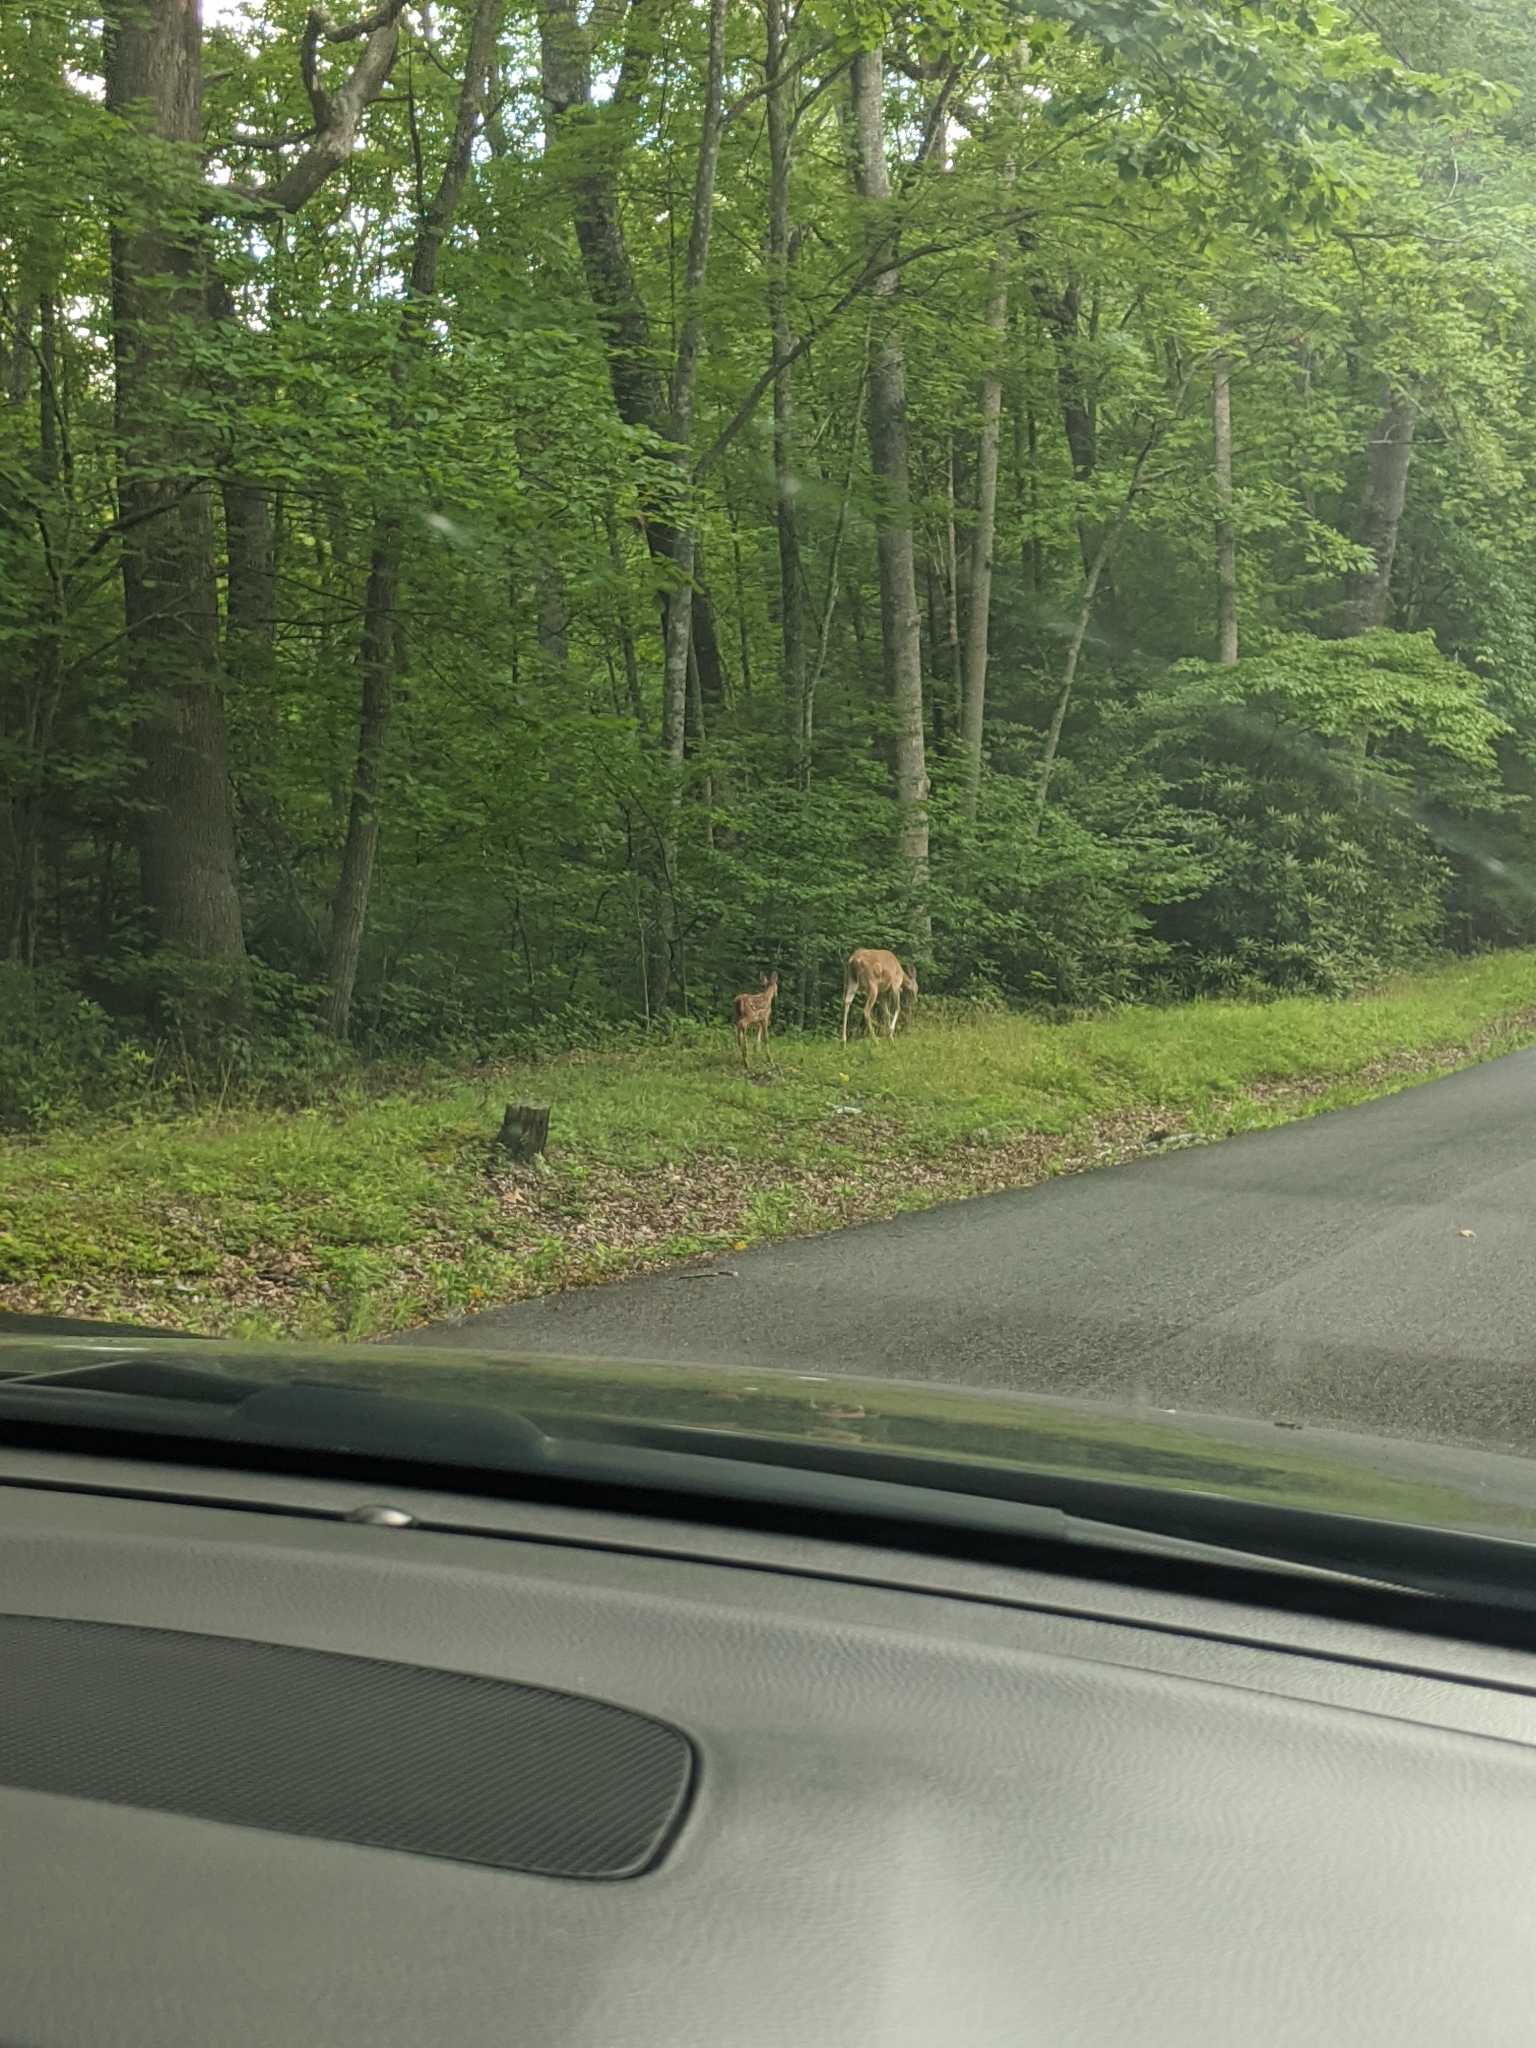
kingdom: Animalia
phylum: Chordata
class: Mammalia
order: Artiodactyla
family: Cervidae
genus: Odocoileus
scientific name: Odocoileus virginianus
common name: White-tailed deer
